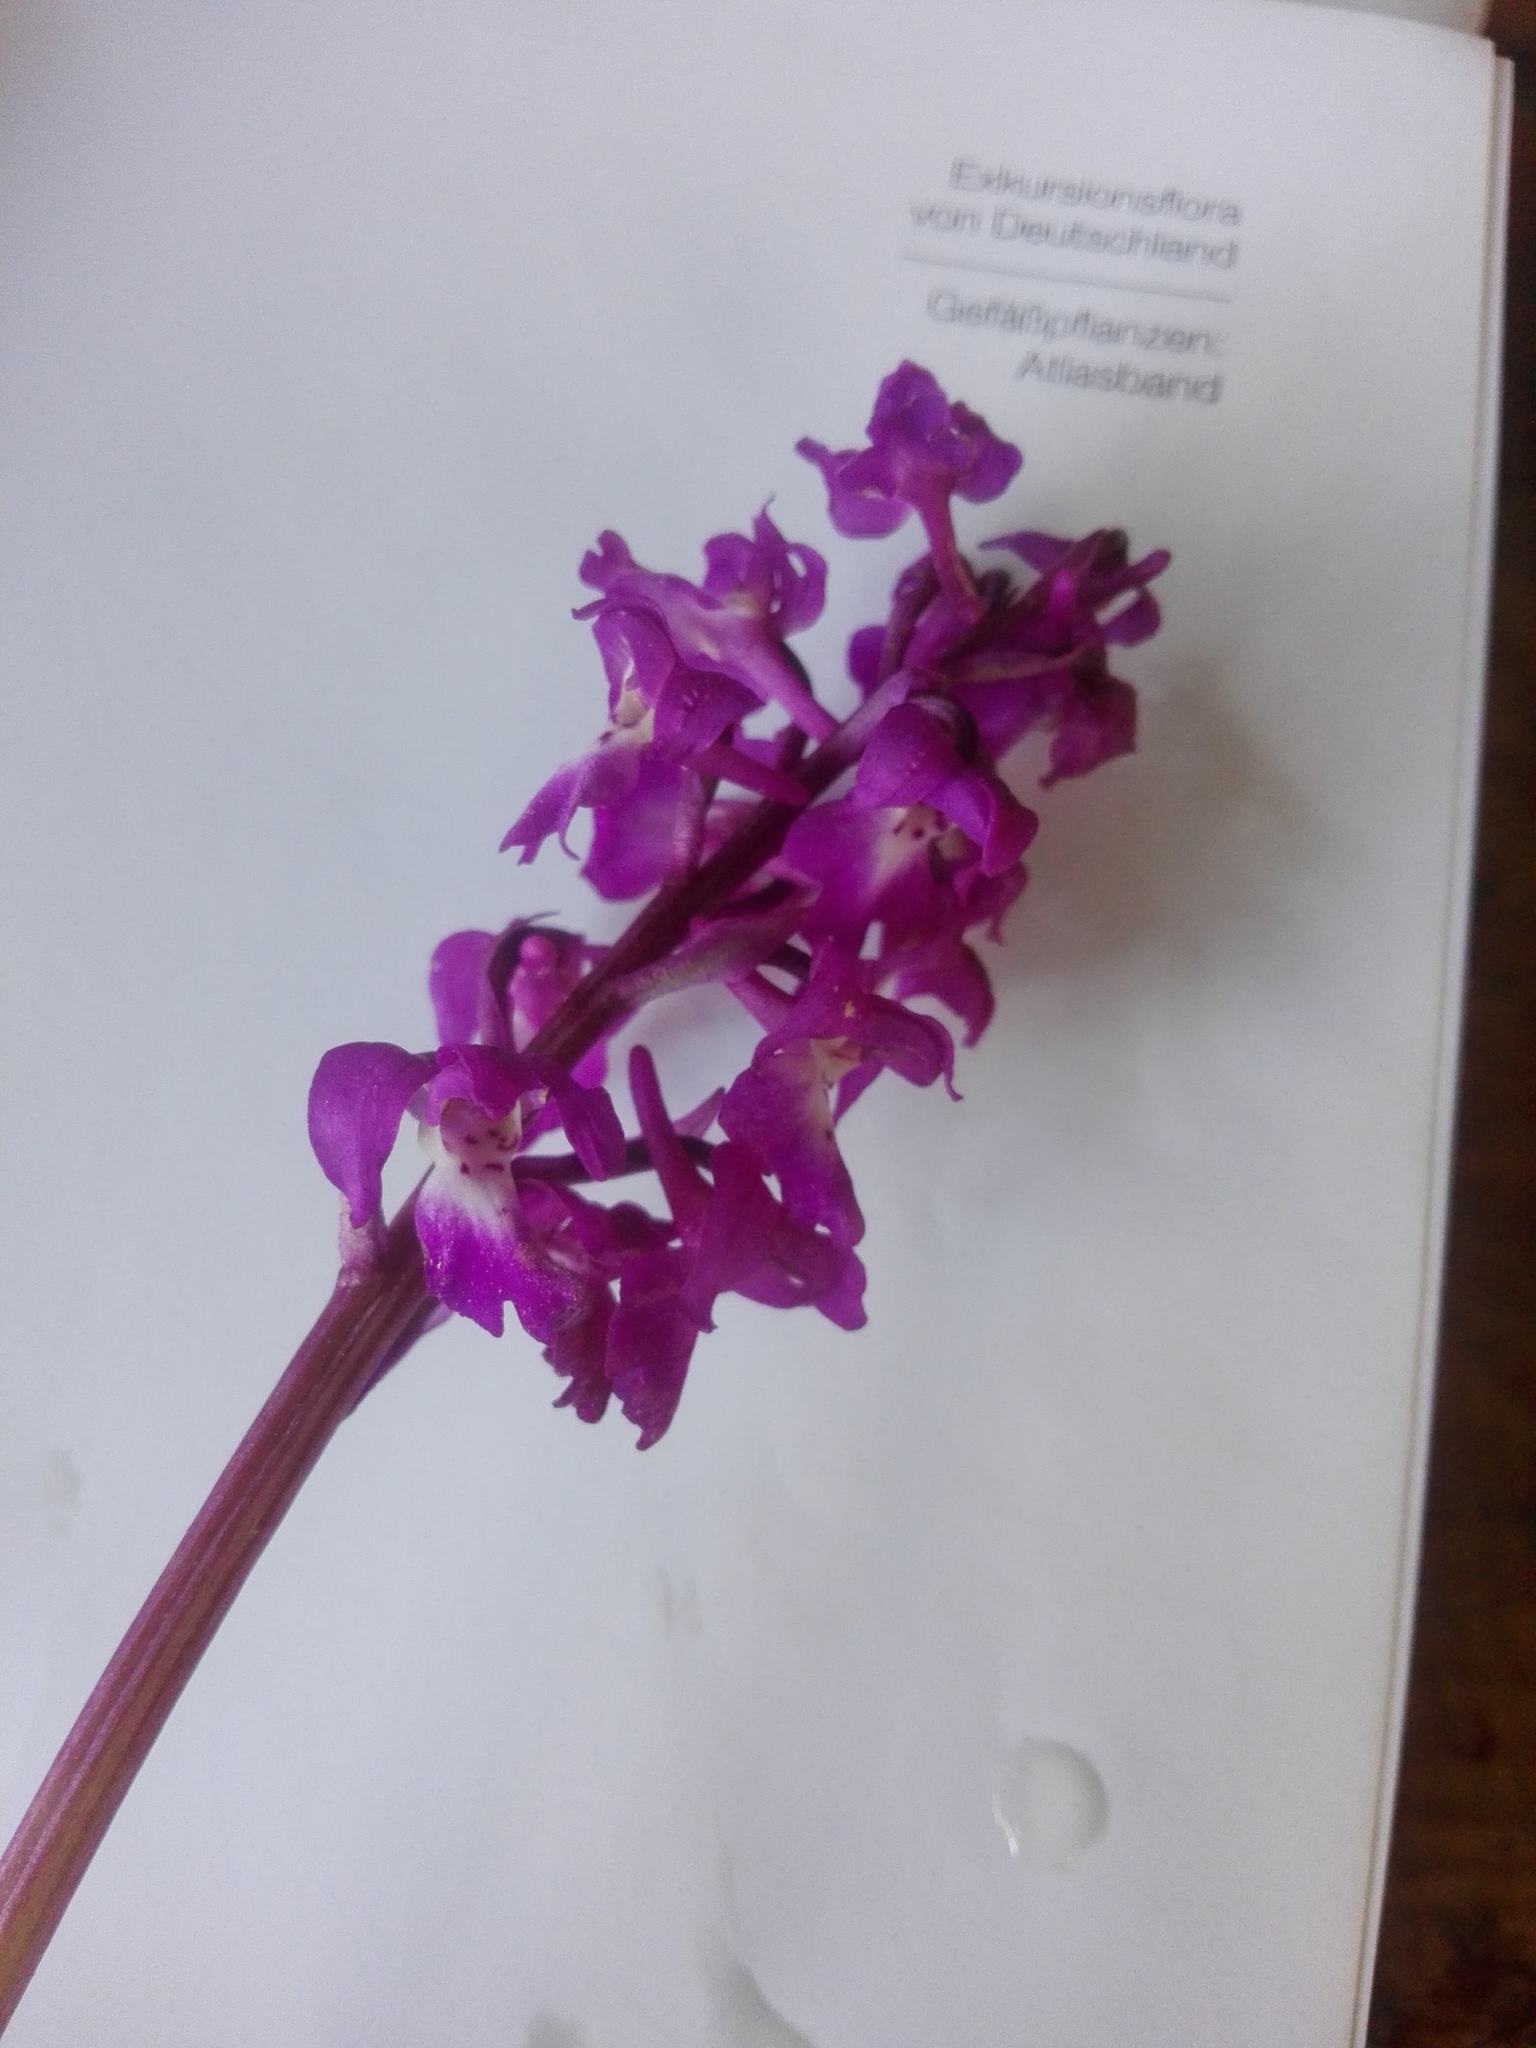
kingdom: Plantae
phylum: Tracheophyta
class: Liliopsida
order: Asparagales
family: Orchidaceae
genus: Orchis
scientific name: Orchis mascula
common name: Early-purple orchid
